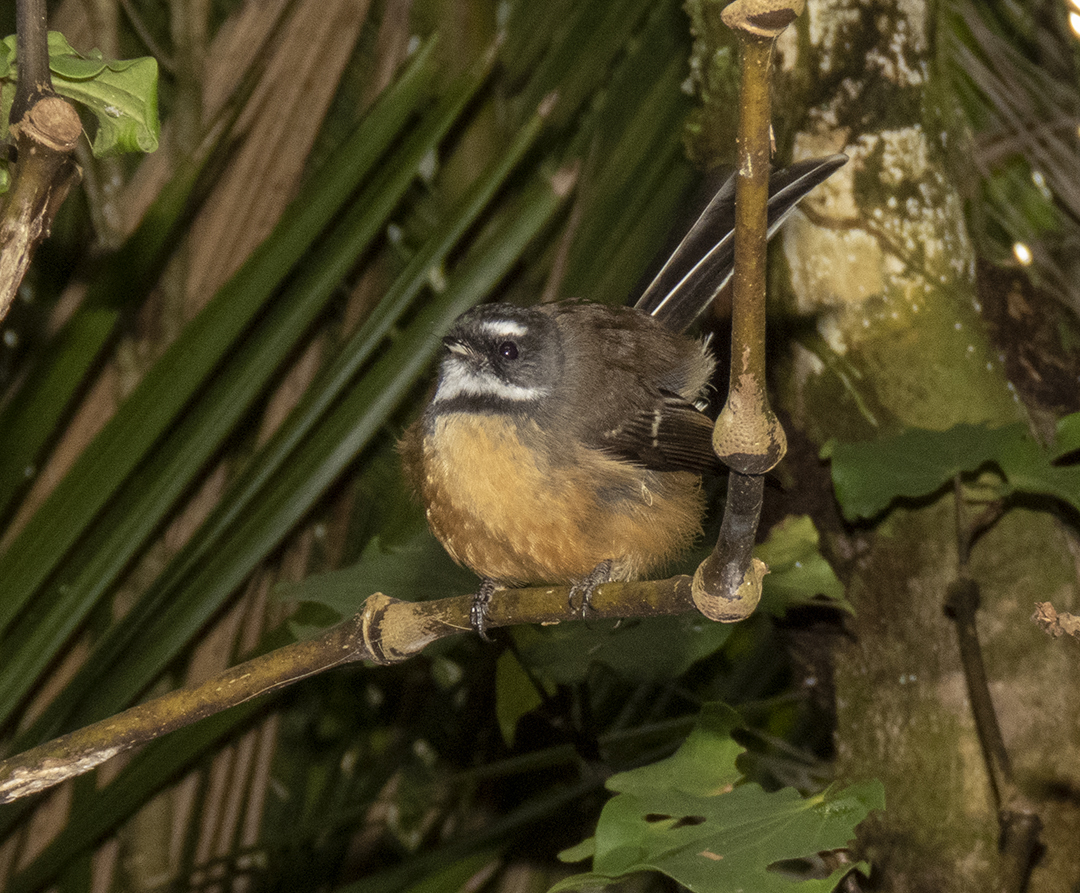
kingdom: Animalia
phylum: Chordata
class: Aves
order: Passeriformes
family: Rhipiduridae
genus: Rhipidura
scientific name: Rhipidura fuliginosa
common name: New zealand fantail
